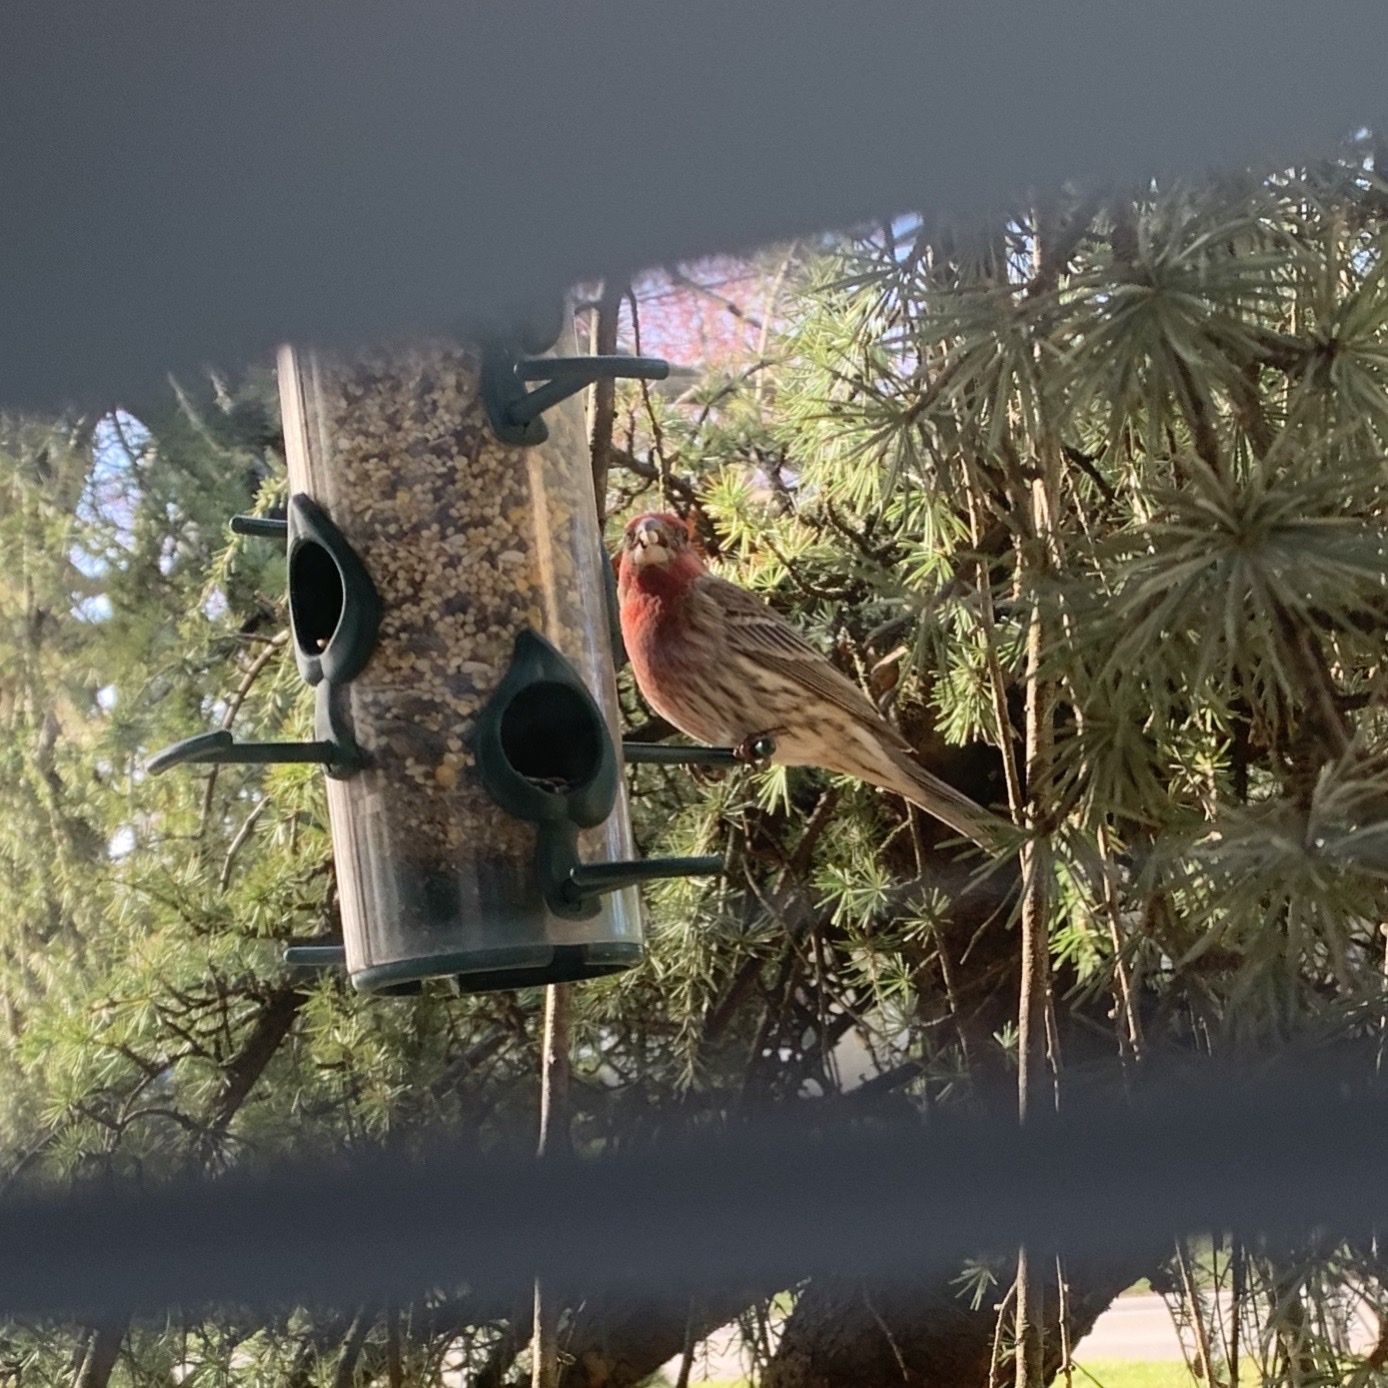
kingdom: Animalia
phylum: Chordata
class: Aves
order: Passeriformes
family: Fringillidae
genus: Haemorhous
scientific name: Haemorhous mexicanus
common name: House finch
